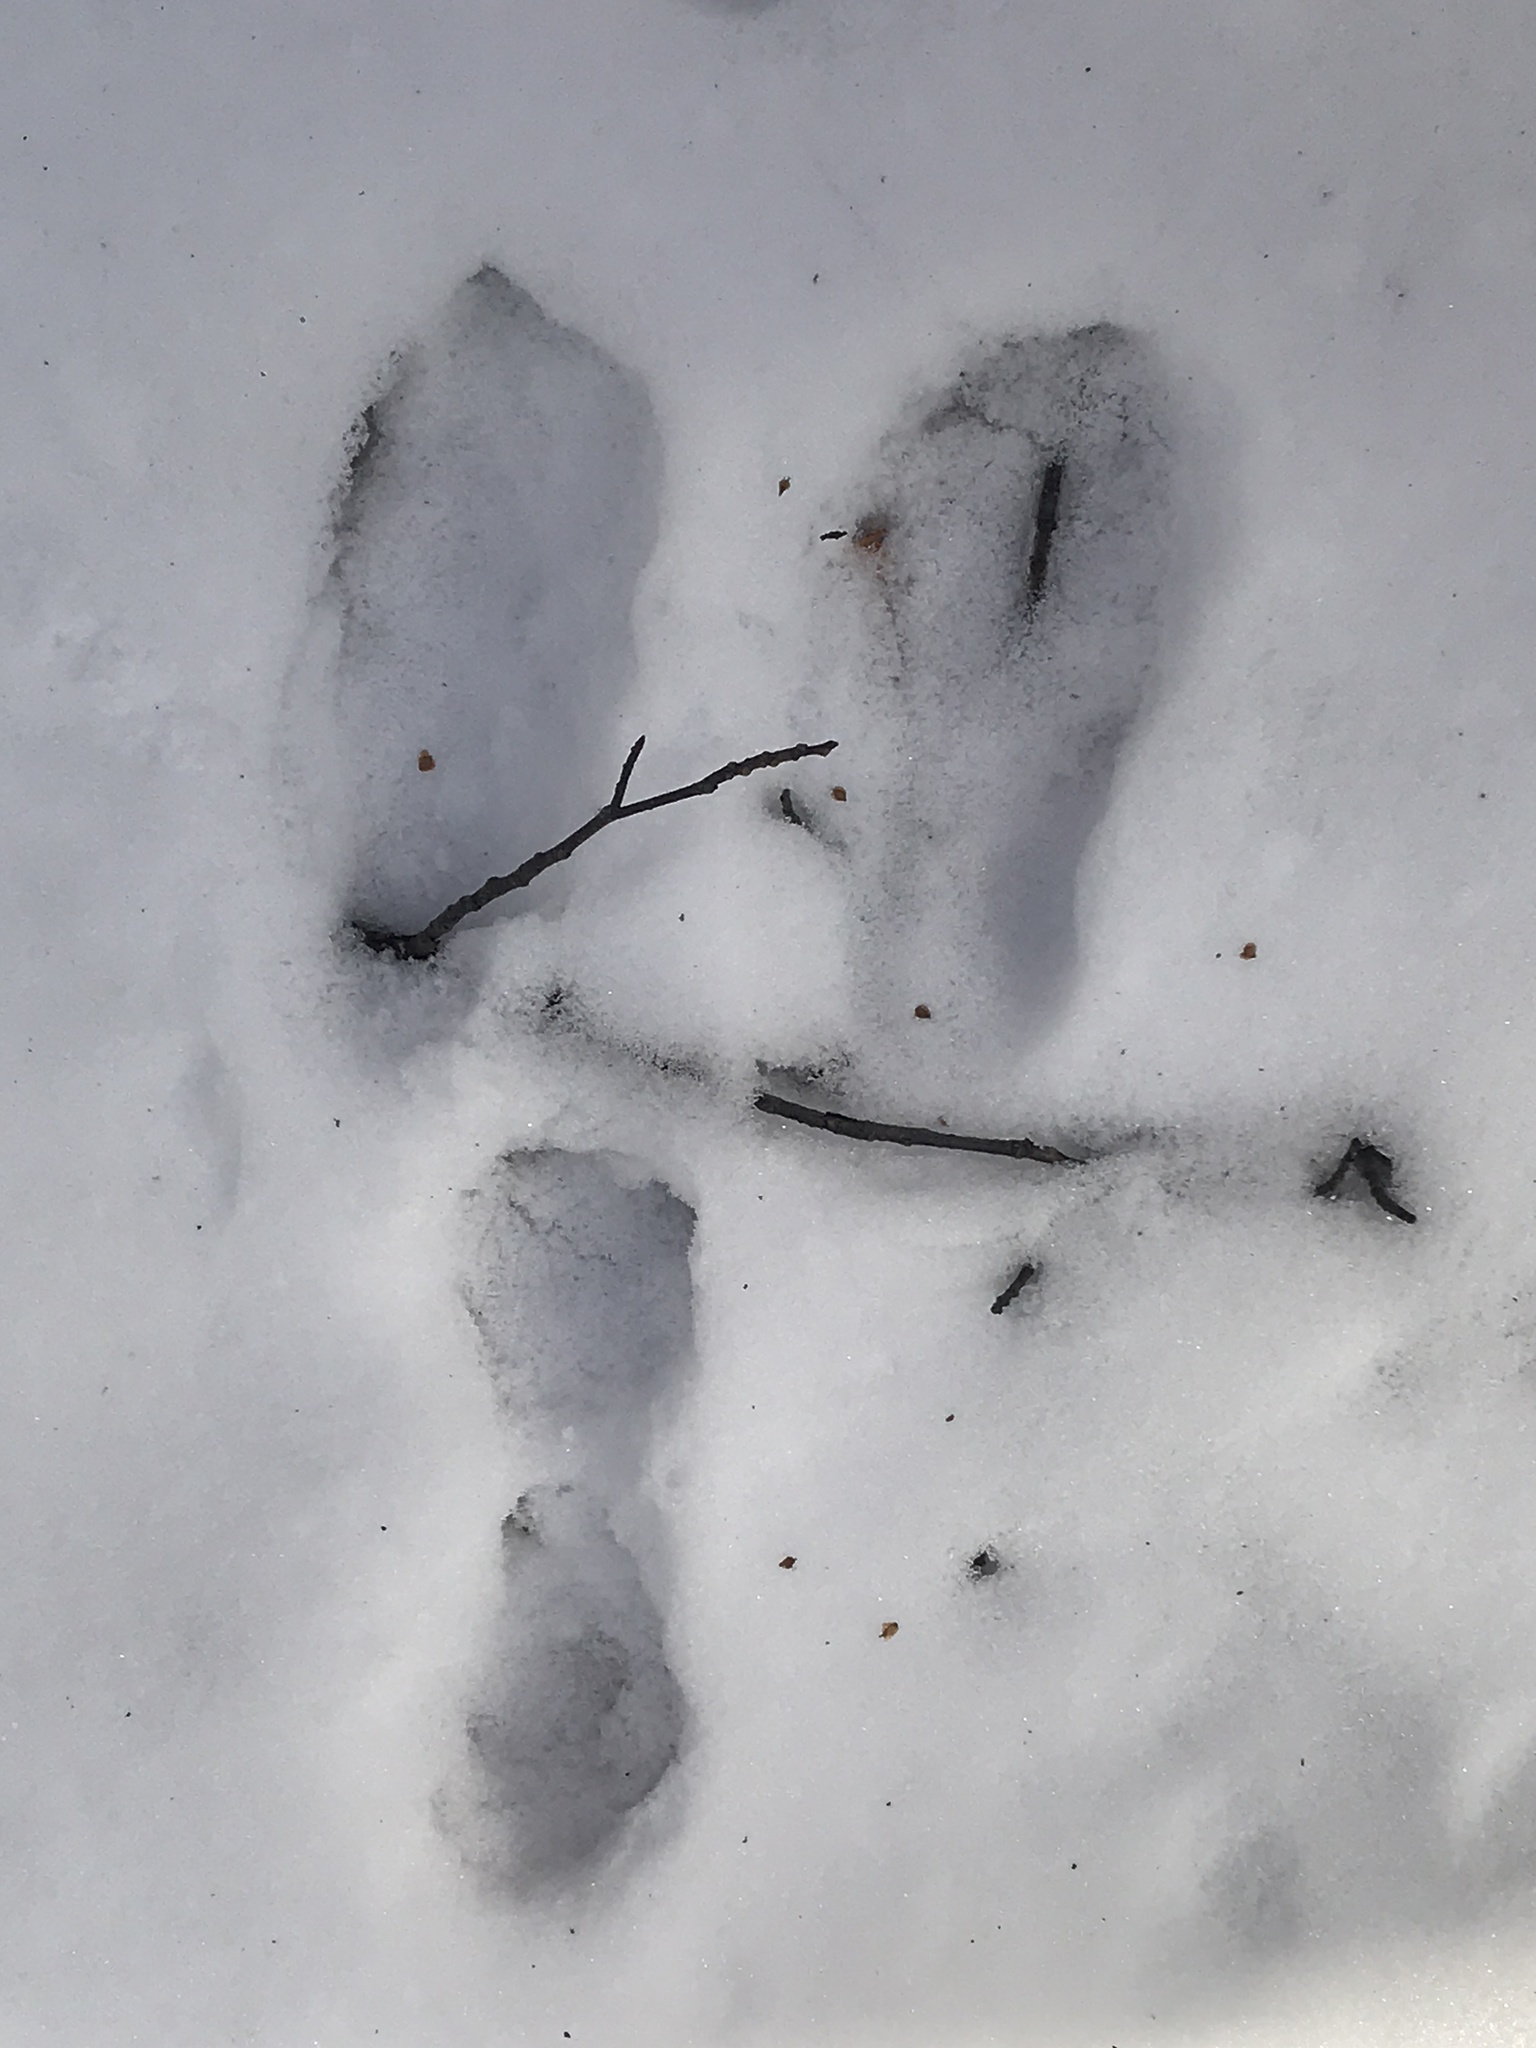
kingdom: Animalia
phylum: Chordata
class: Mammalia
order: Lagomorpha
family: Leporidae
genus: Lepus
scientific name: Lepus americanus
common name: Snowshoe hare
